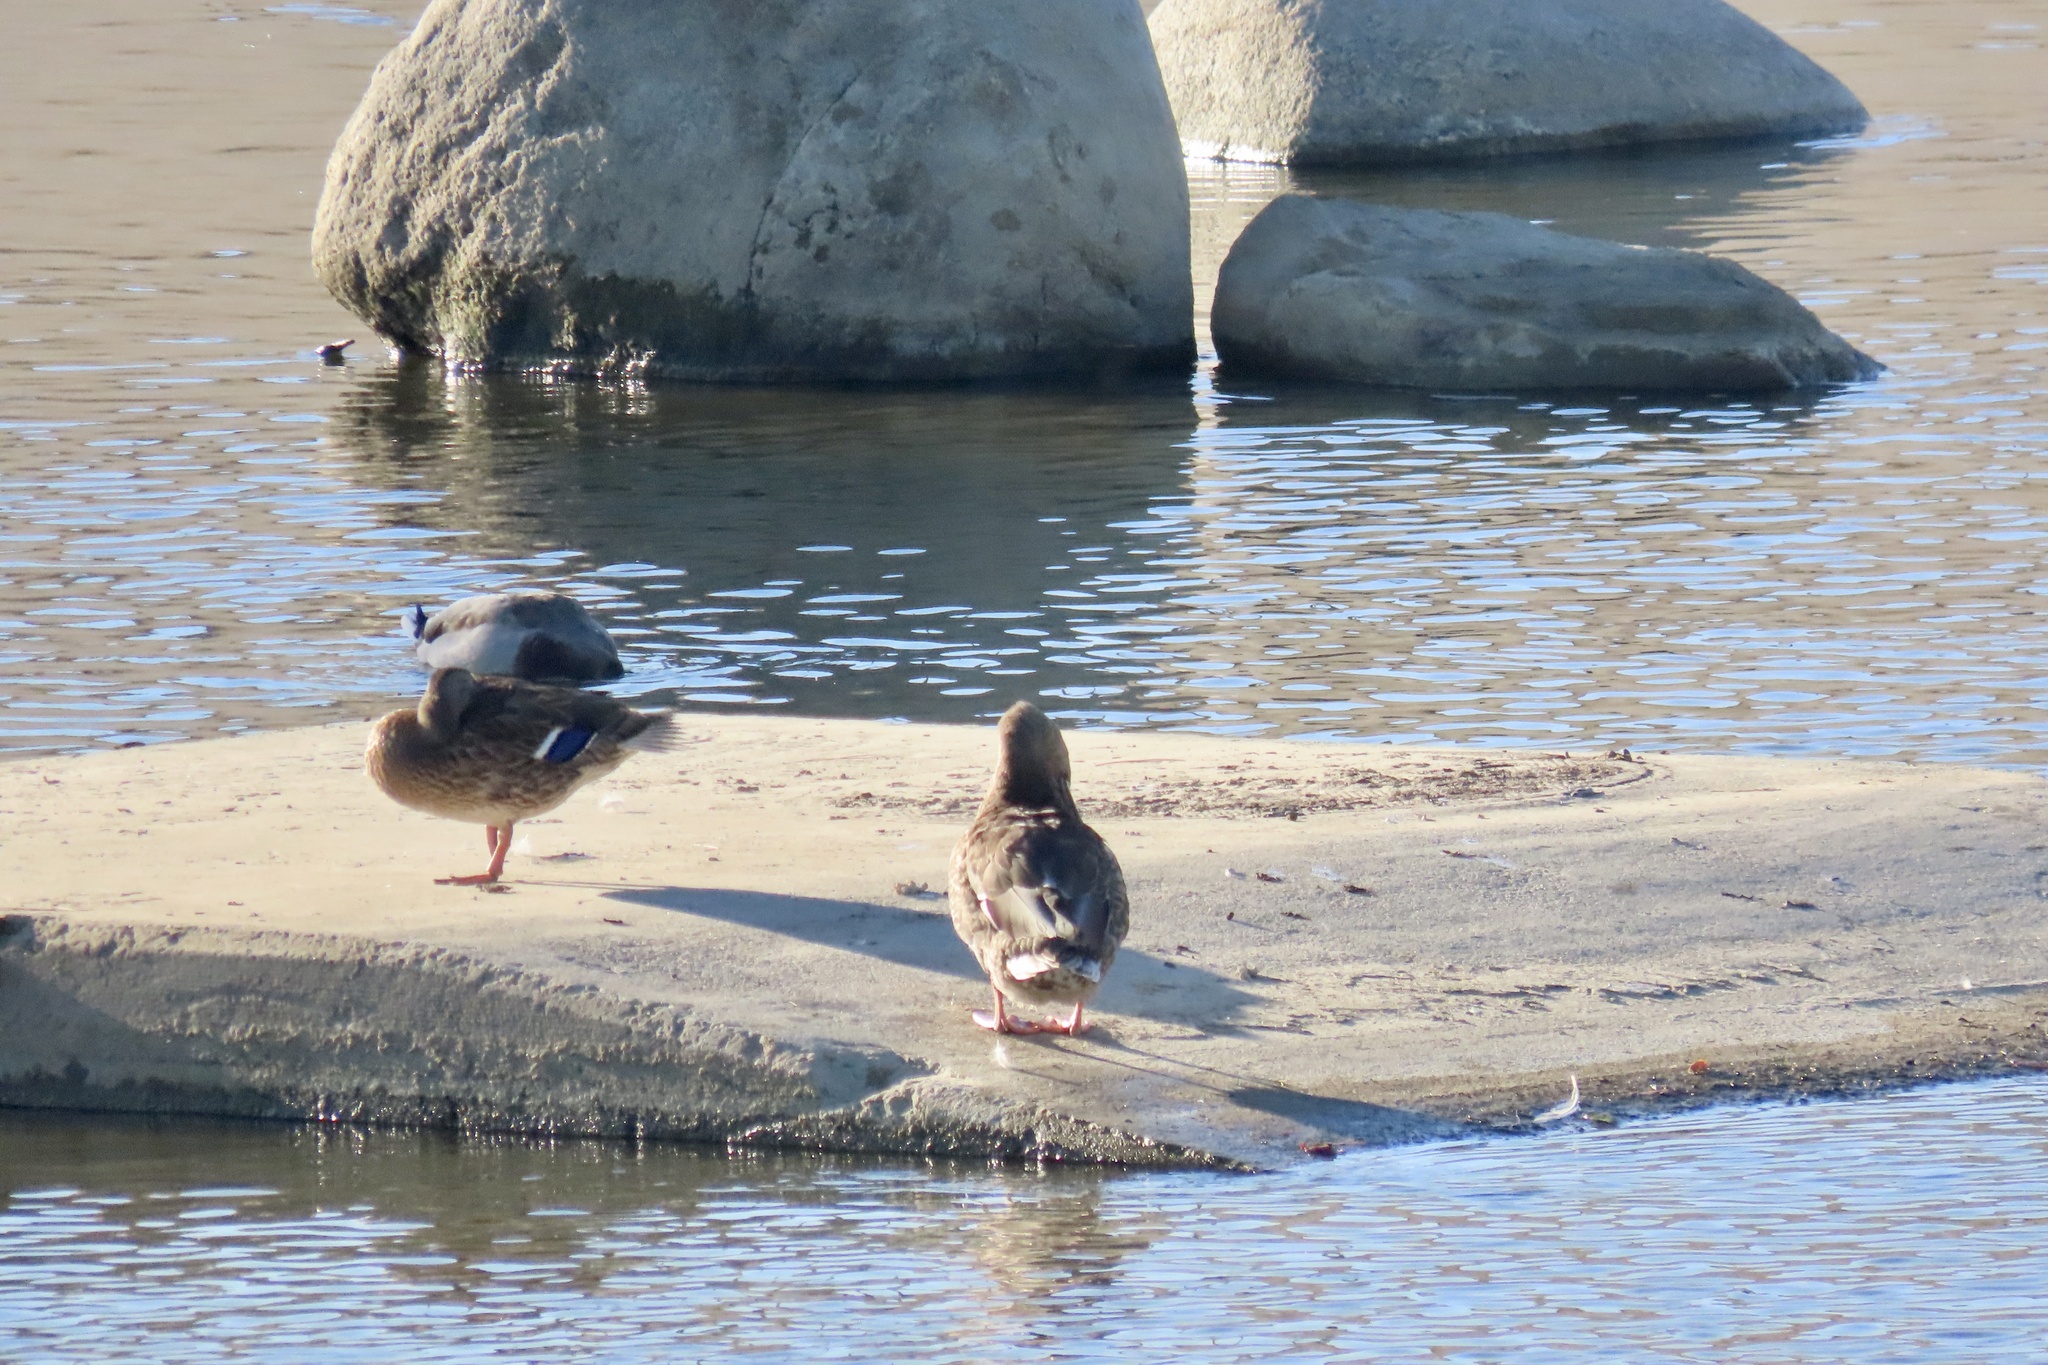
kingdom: Animalia
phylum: Chordata
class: Aves
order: Anseriformes
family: Anatidae
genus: Anas
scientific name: Anas platyrhynchos
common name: Mallard
